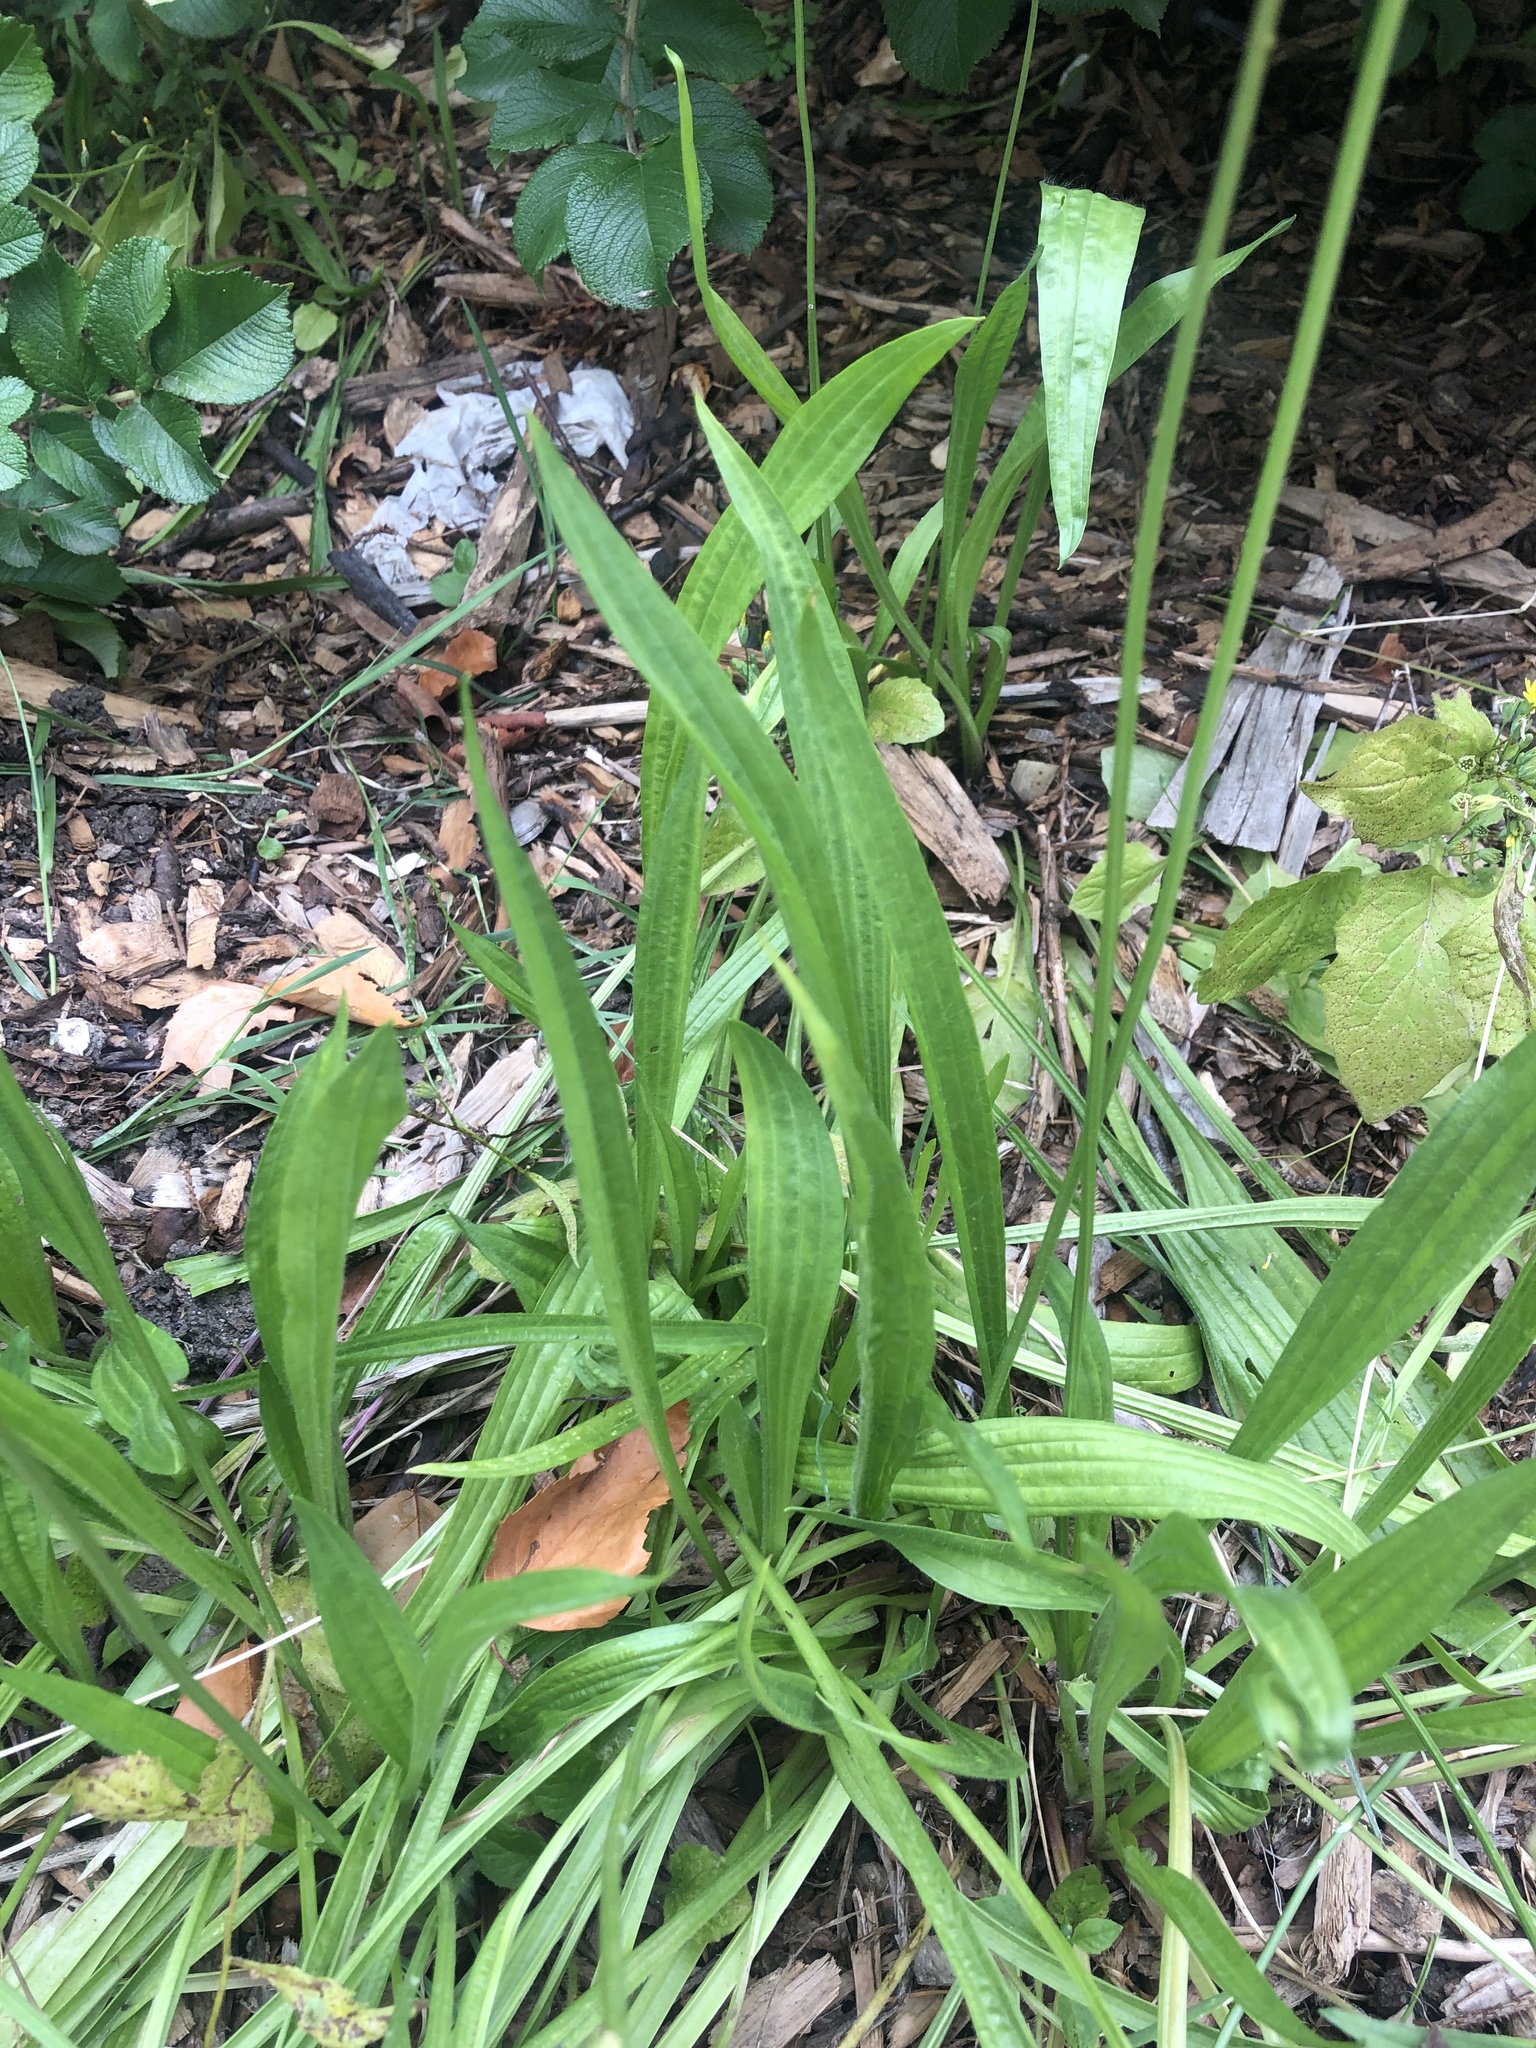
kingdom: Plantae
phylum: Tracheophyta
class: Magnoliopsida
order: Lamiales
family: Plantaginaceae
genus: Plantago
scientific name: Plantago lanceolata
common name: Ribwort plantain
